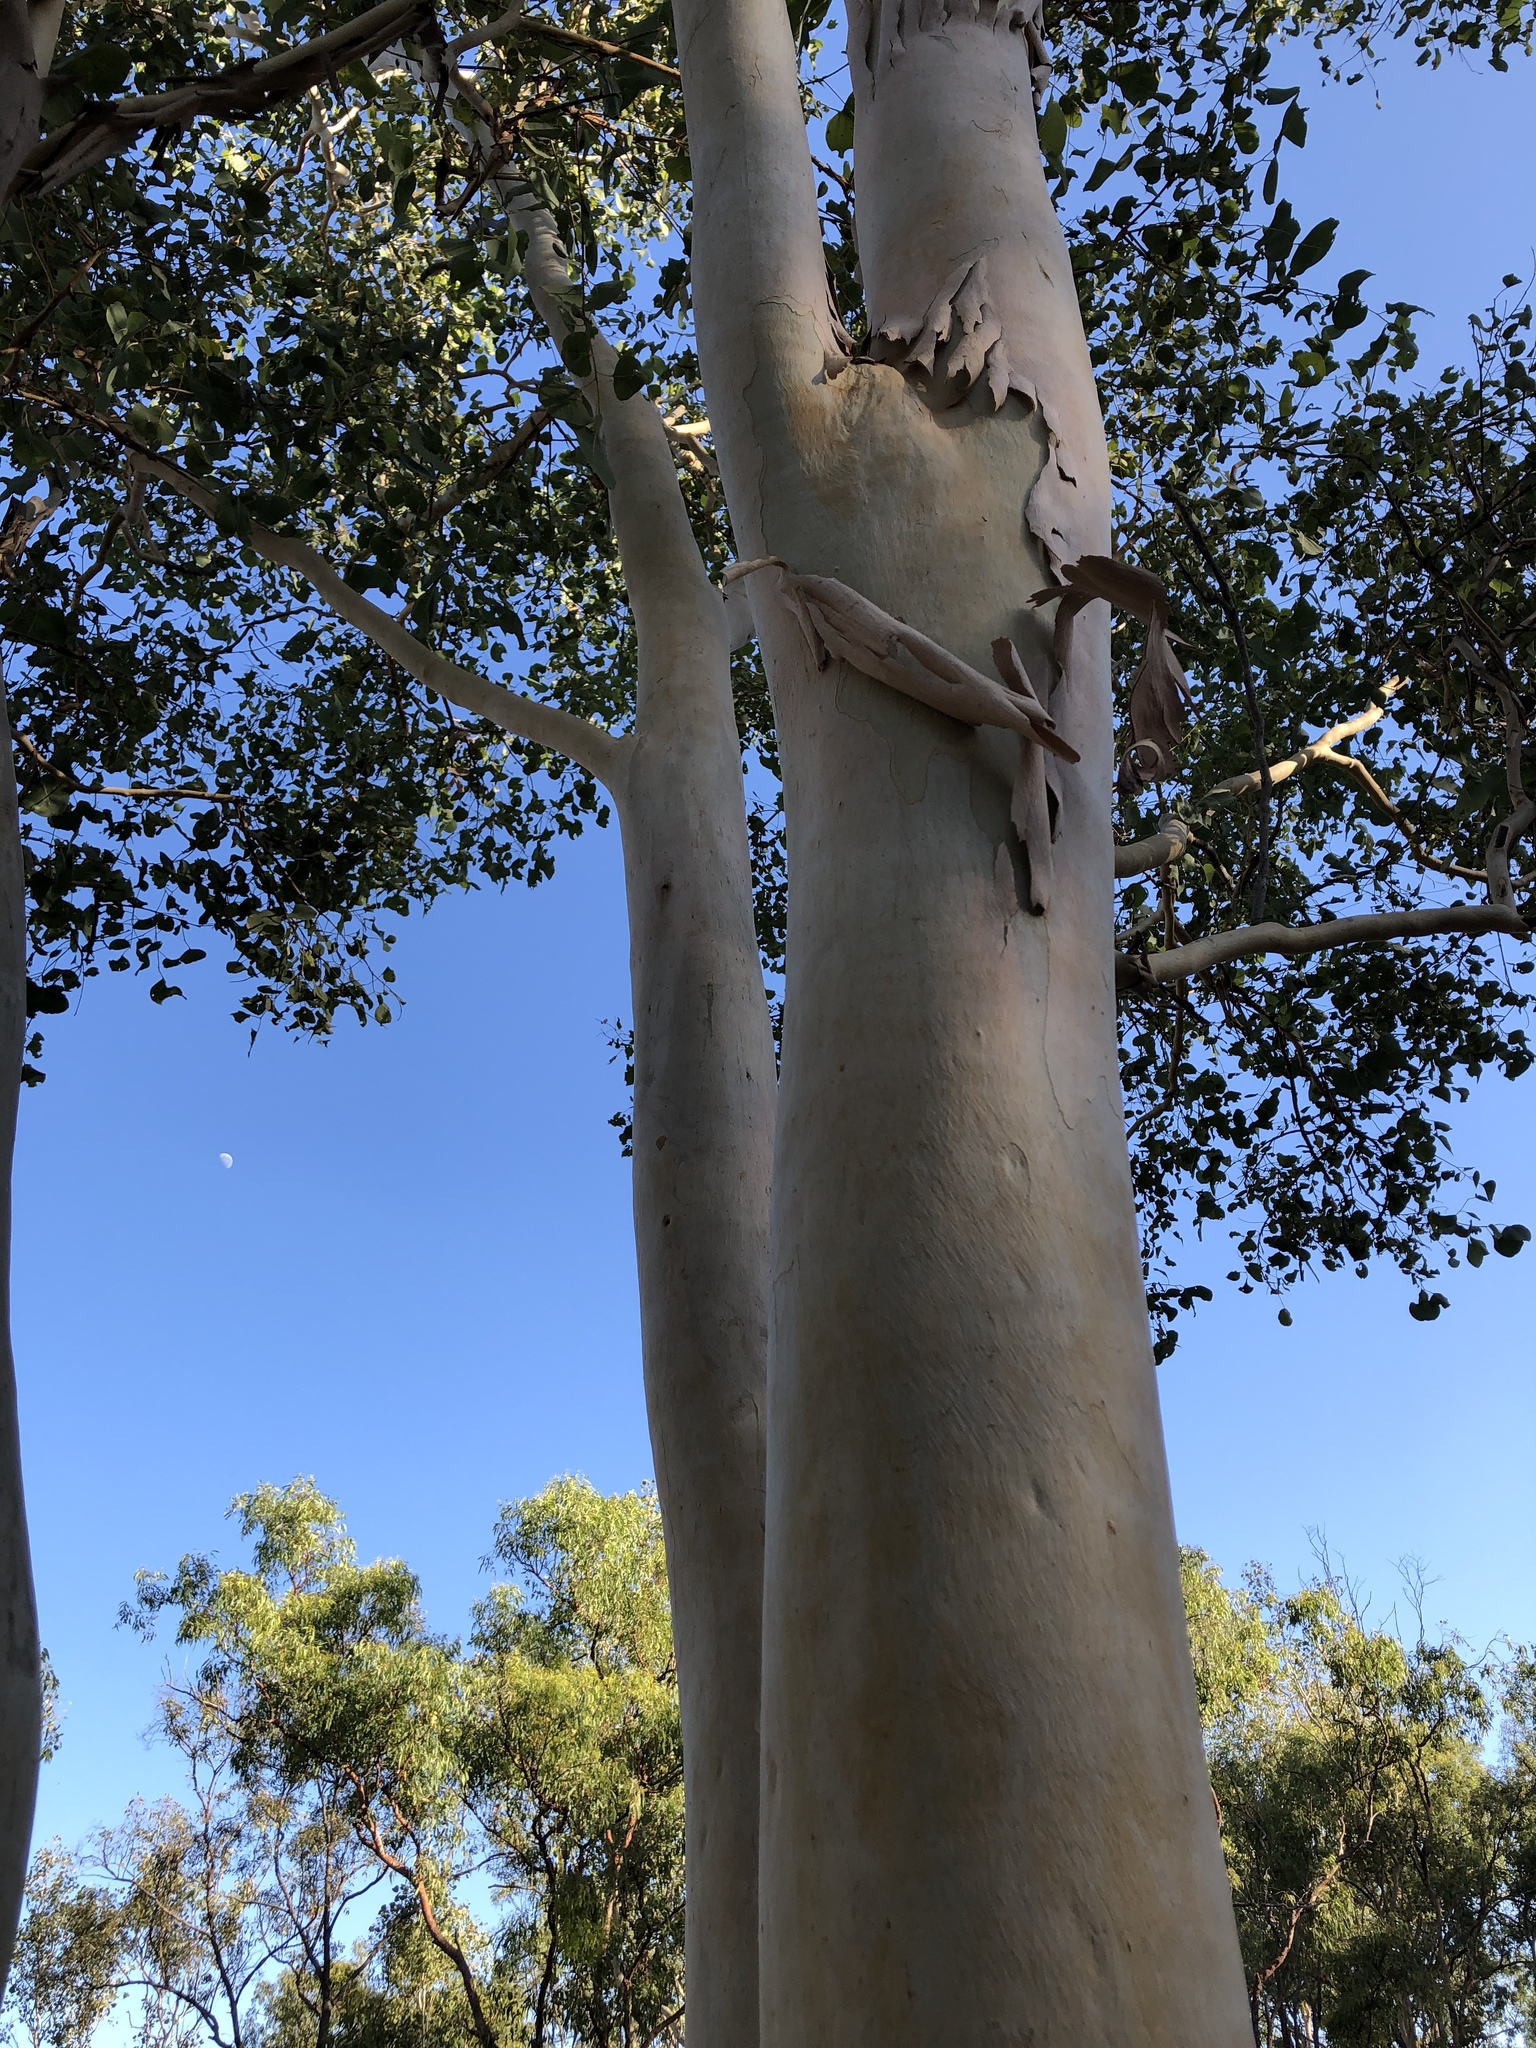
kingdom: Plantae
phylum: Tracheophyta
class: Magnoliopsida
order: Myrtales
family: Myrtaceae
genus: Eucalyptus
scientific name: Eucalyptus platyphylla
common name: Poplar-gum
